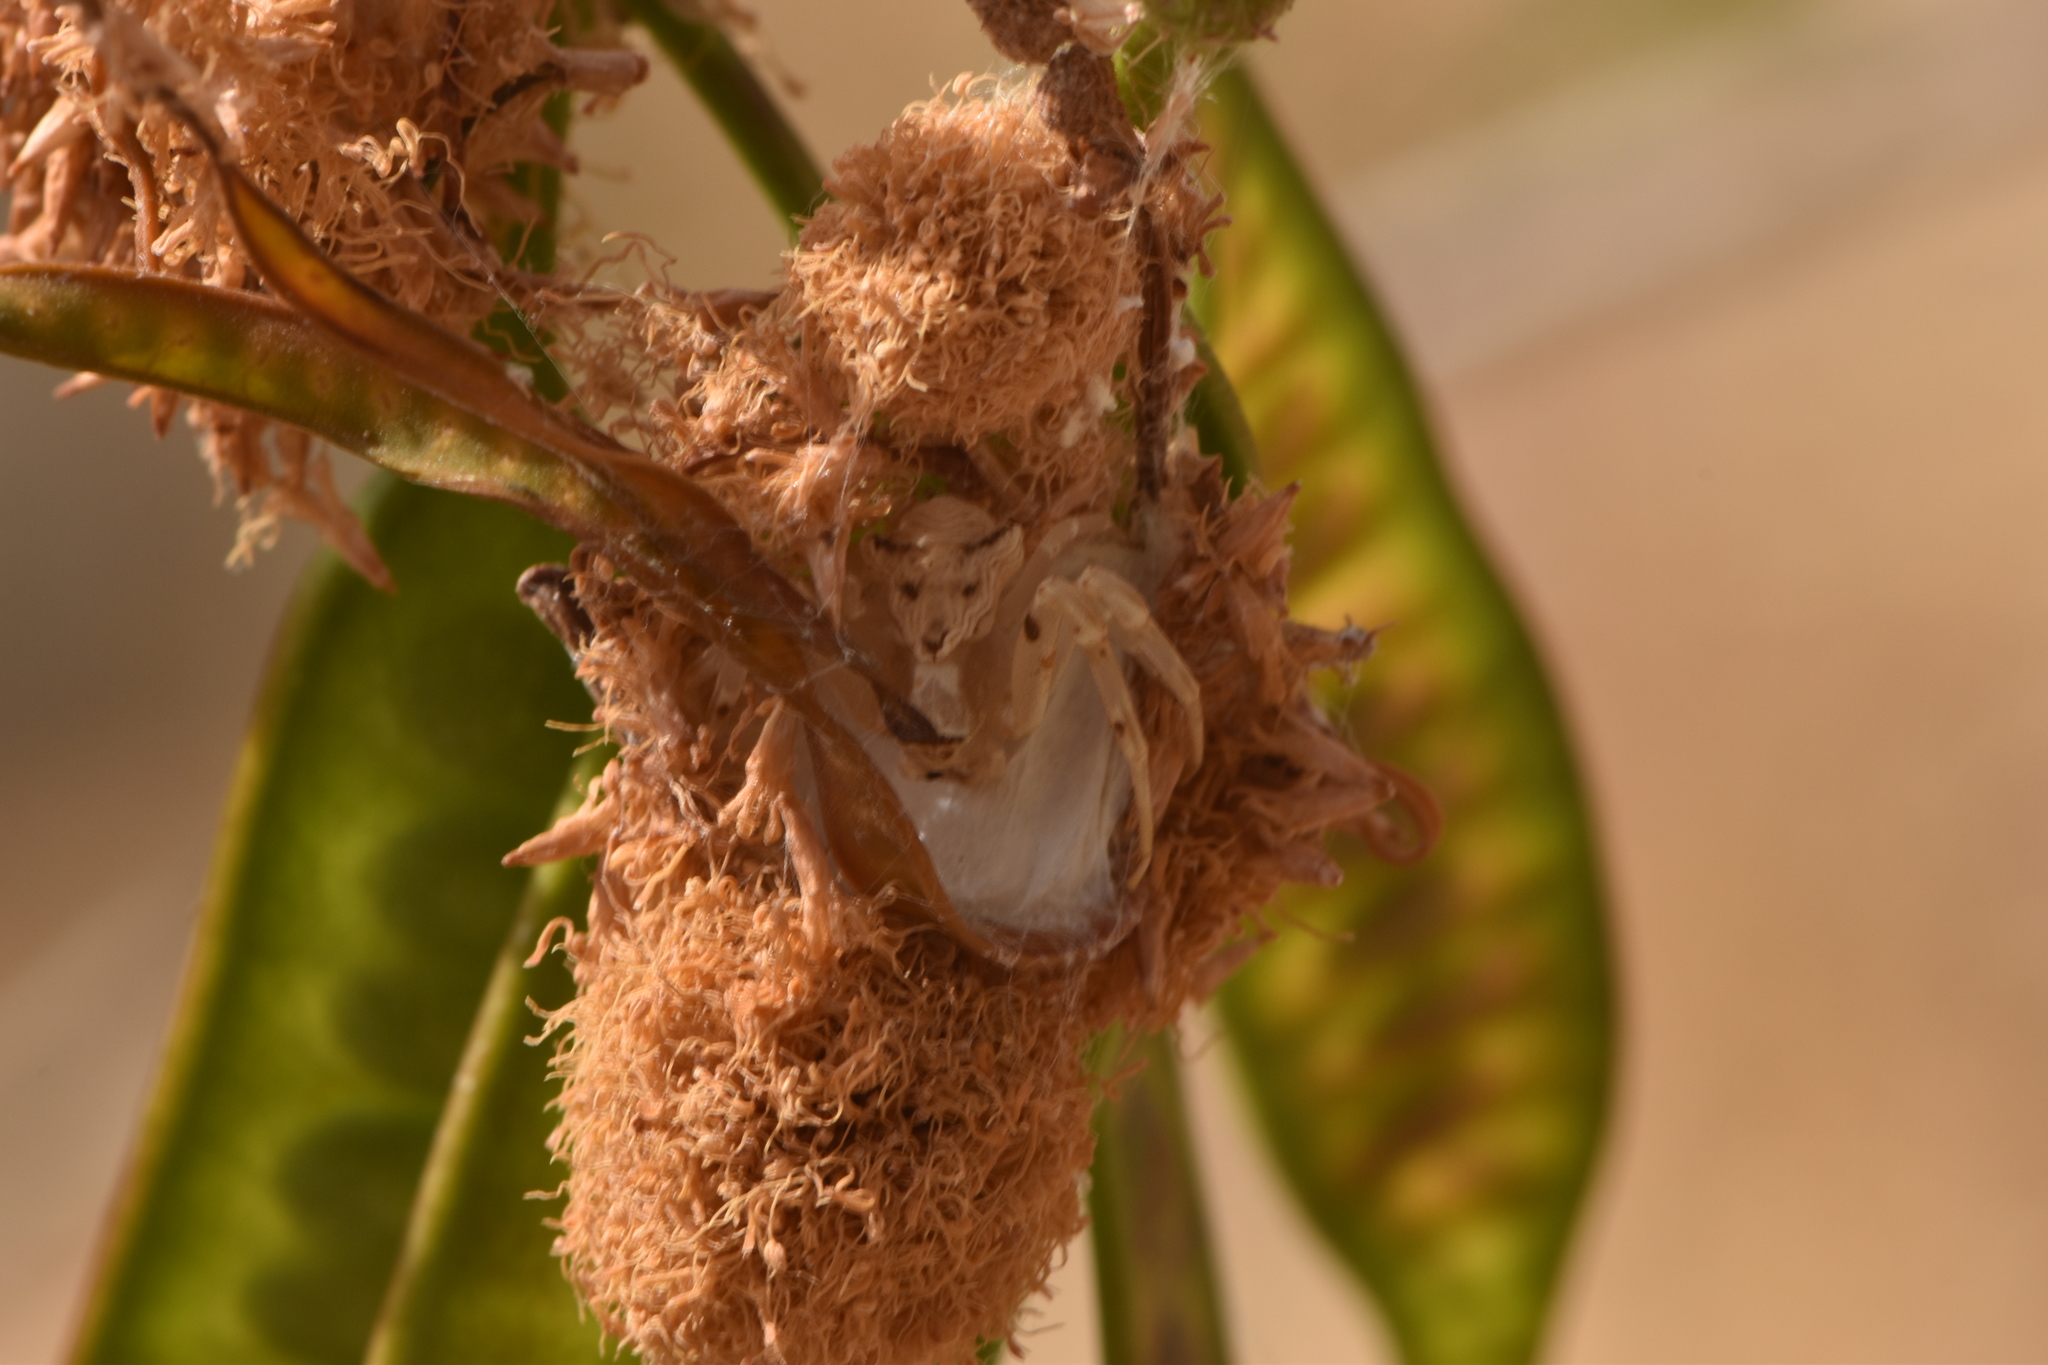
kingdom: Animalia
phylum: Arthropoda
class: Arachnida
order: Araneae
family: Thomisidae
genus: Thomisus
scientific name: Thomisus onustus
